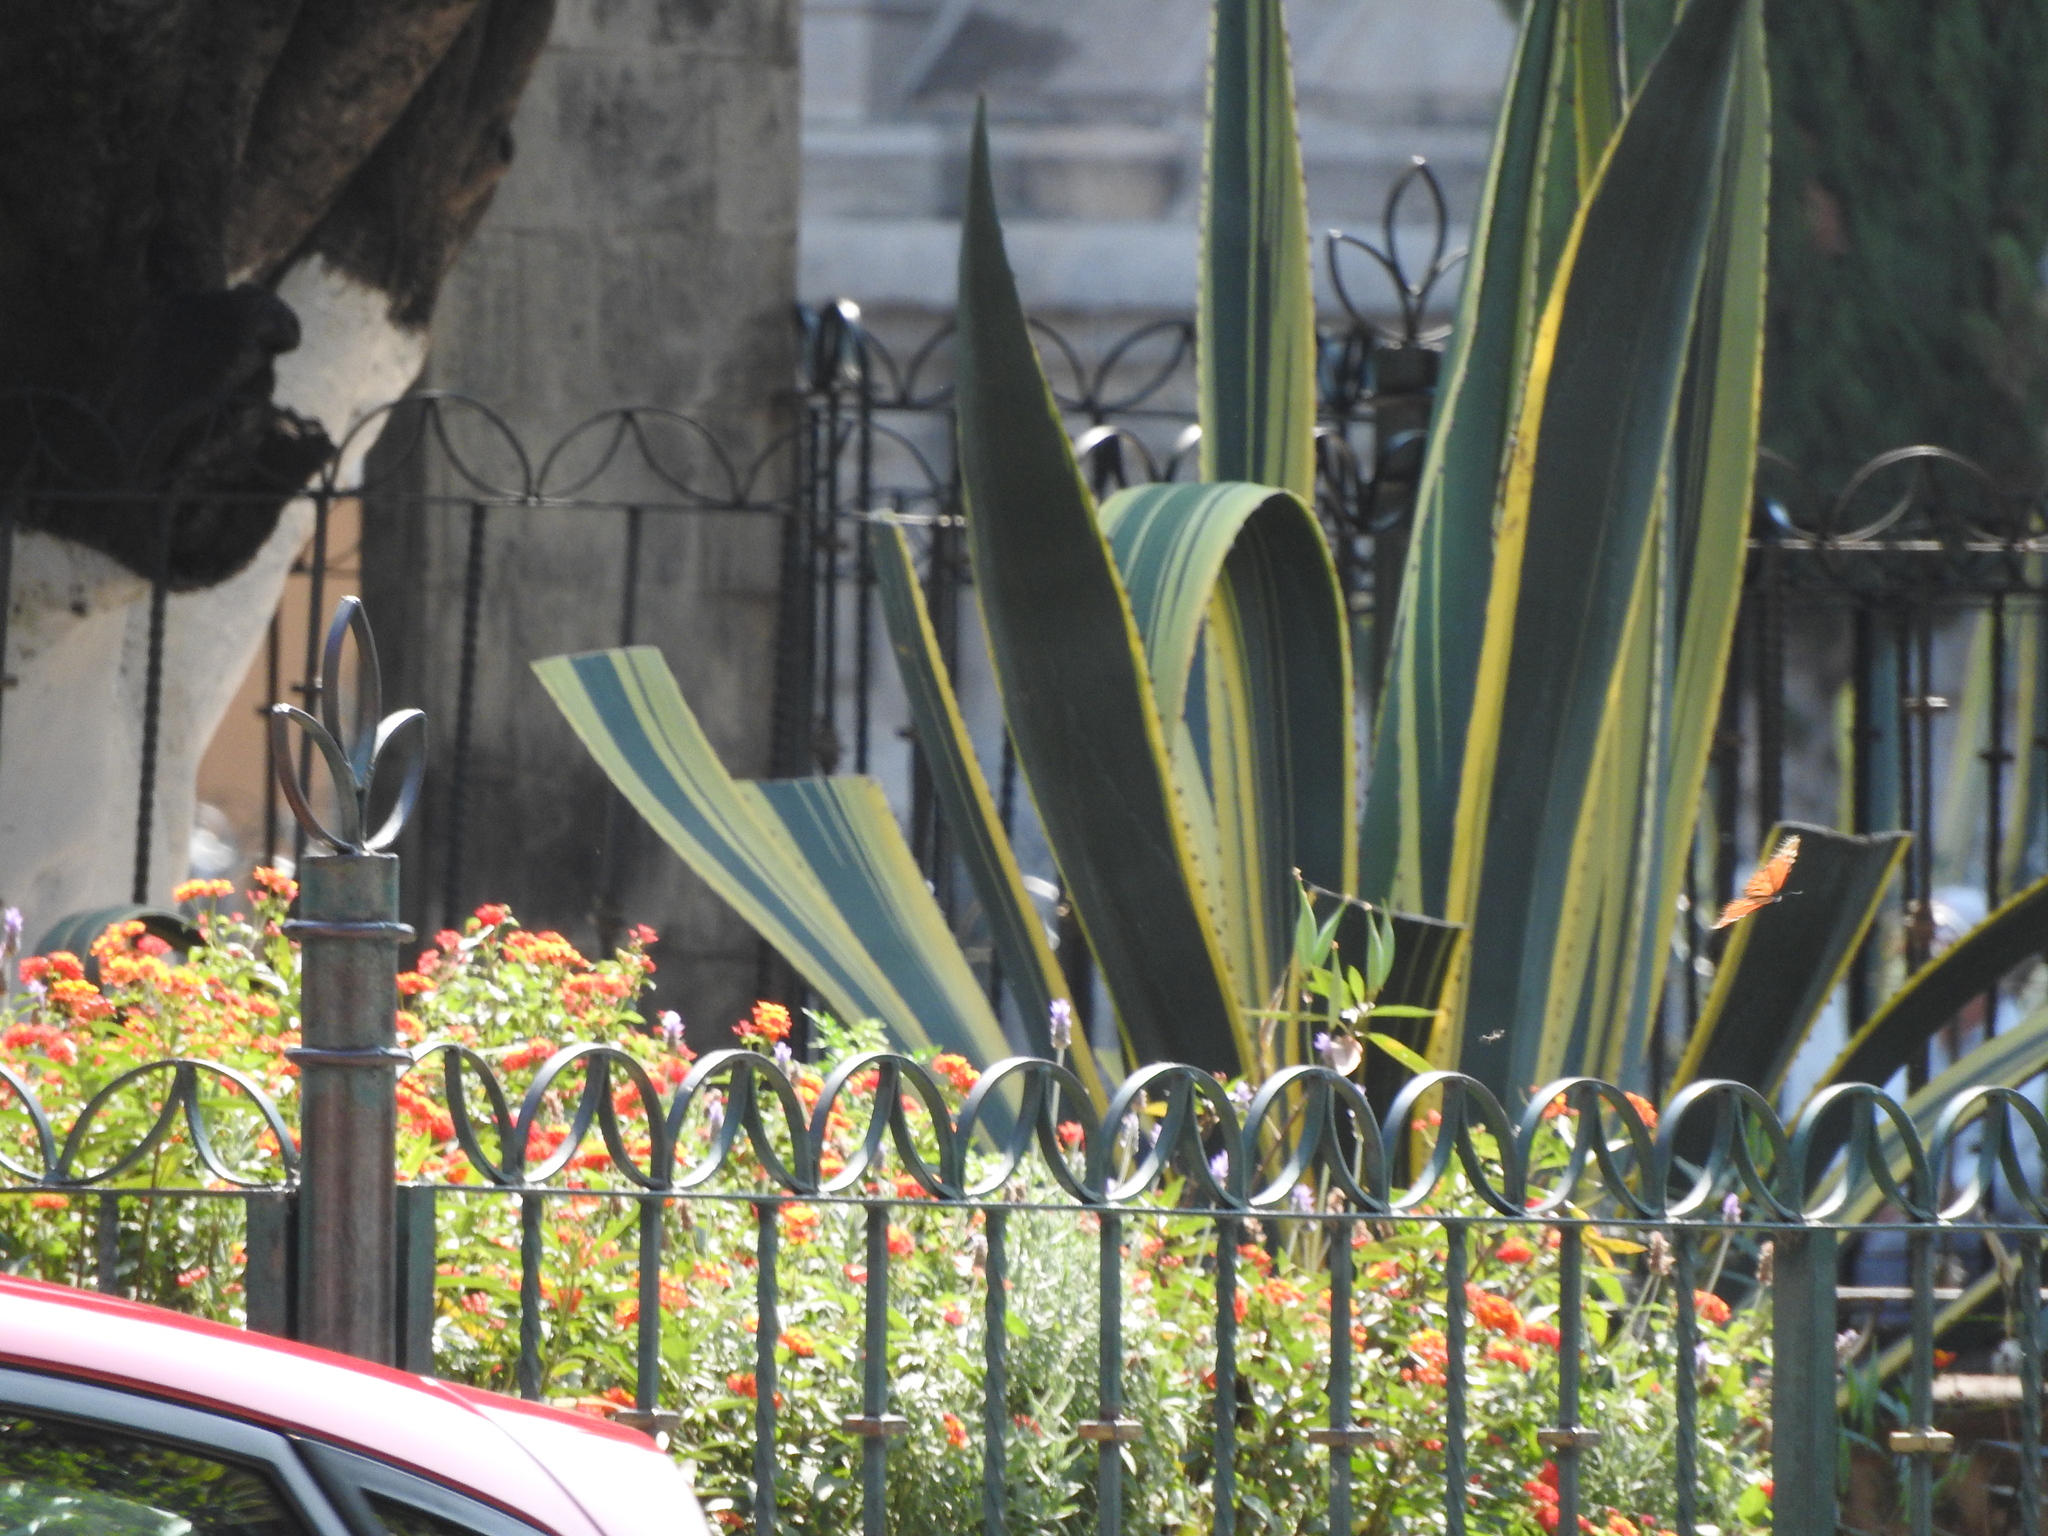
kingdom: Animalia
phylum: Arthropoda
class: Insecta
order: Lepidoptera
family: Nymphalidae
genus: Danaus
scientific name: Danaus plexippus
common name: Monarch
